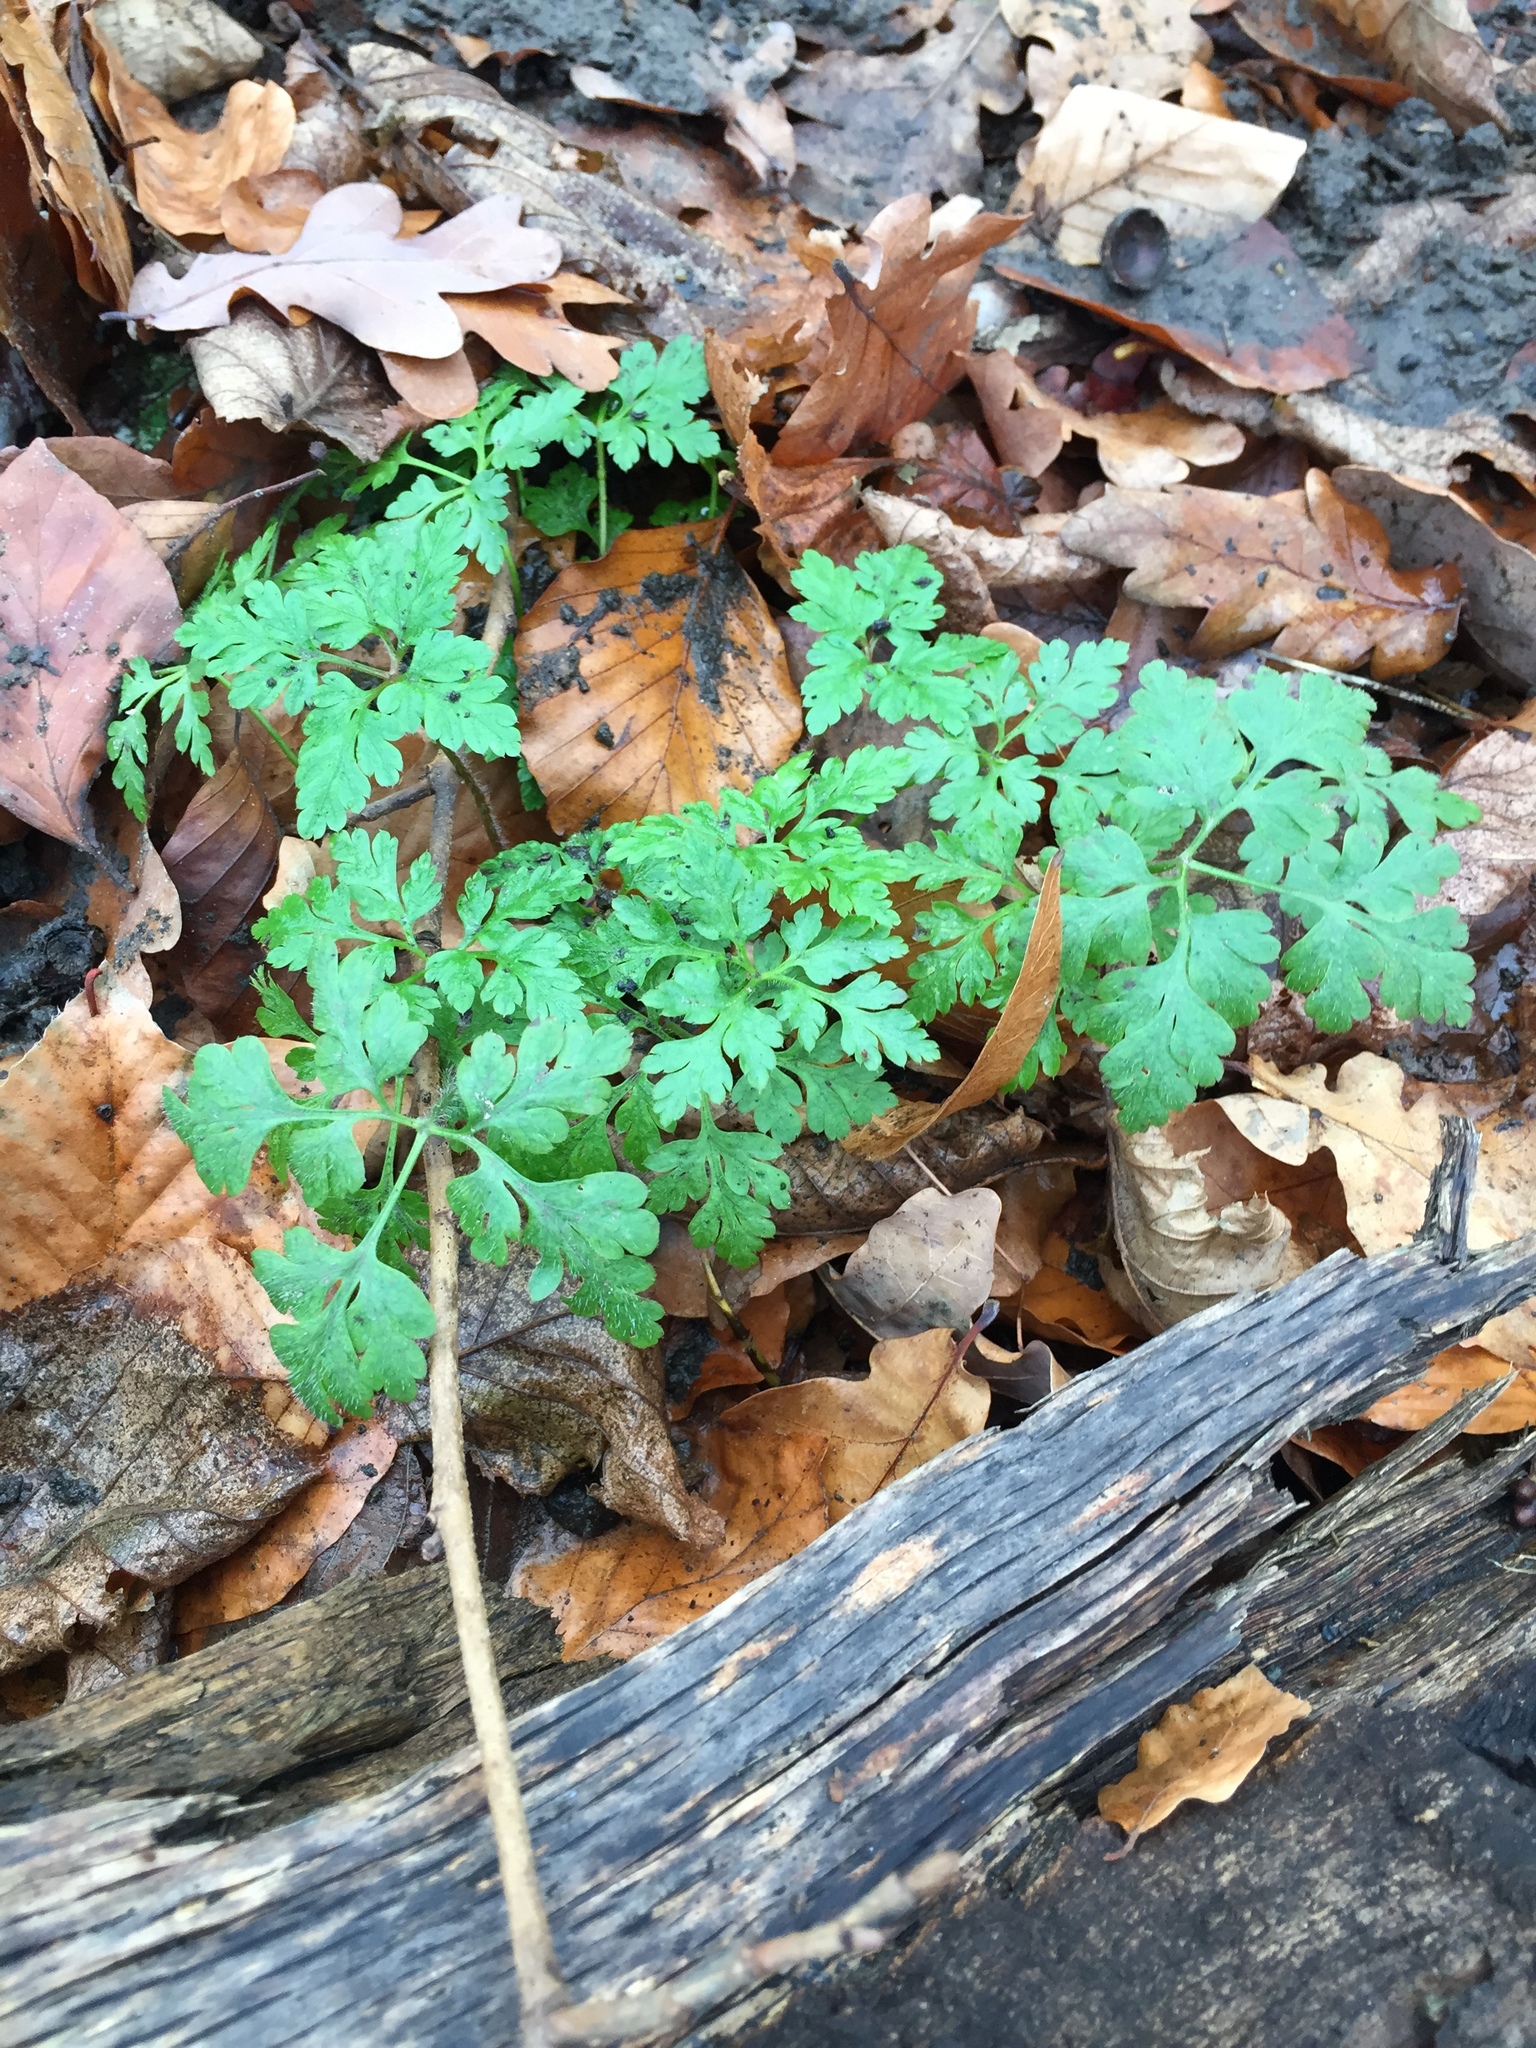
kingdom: Plantae
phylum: Tracheophyta
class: Magnoliopsida
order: Geraniales
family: Geraniaceae
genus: Geranium
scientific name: Geranium robertianum
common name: Herb-robert
